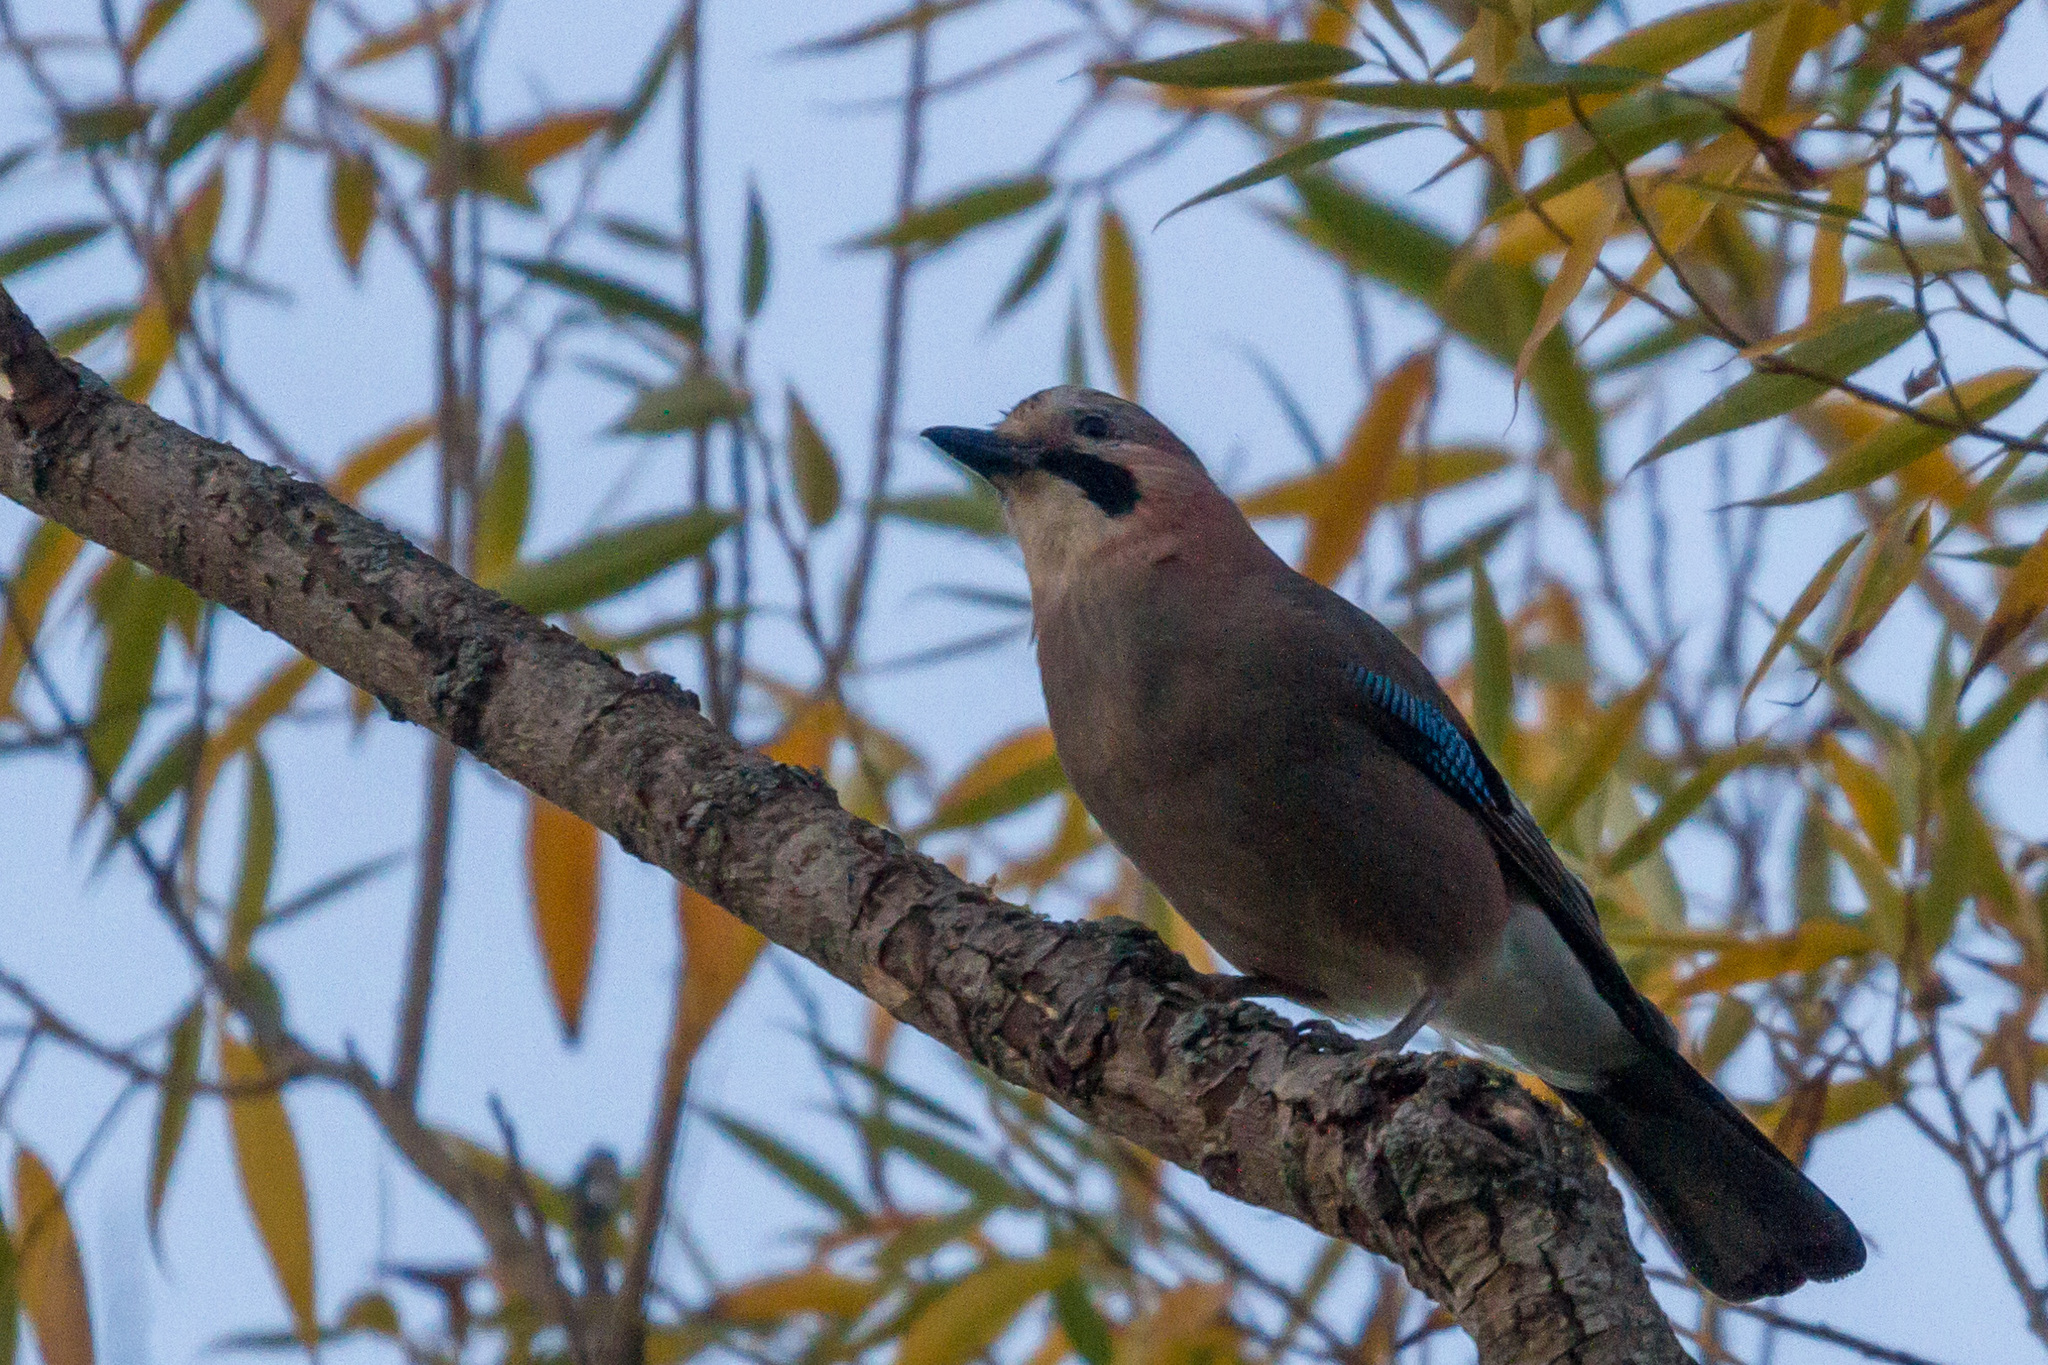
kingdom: Animalia
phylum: Chordata
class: Aves
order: Passeriformes
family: Corvidae
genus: Garrulus
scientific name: Garrulus glandarius
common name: Eurasian jay
